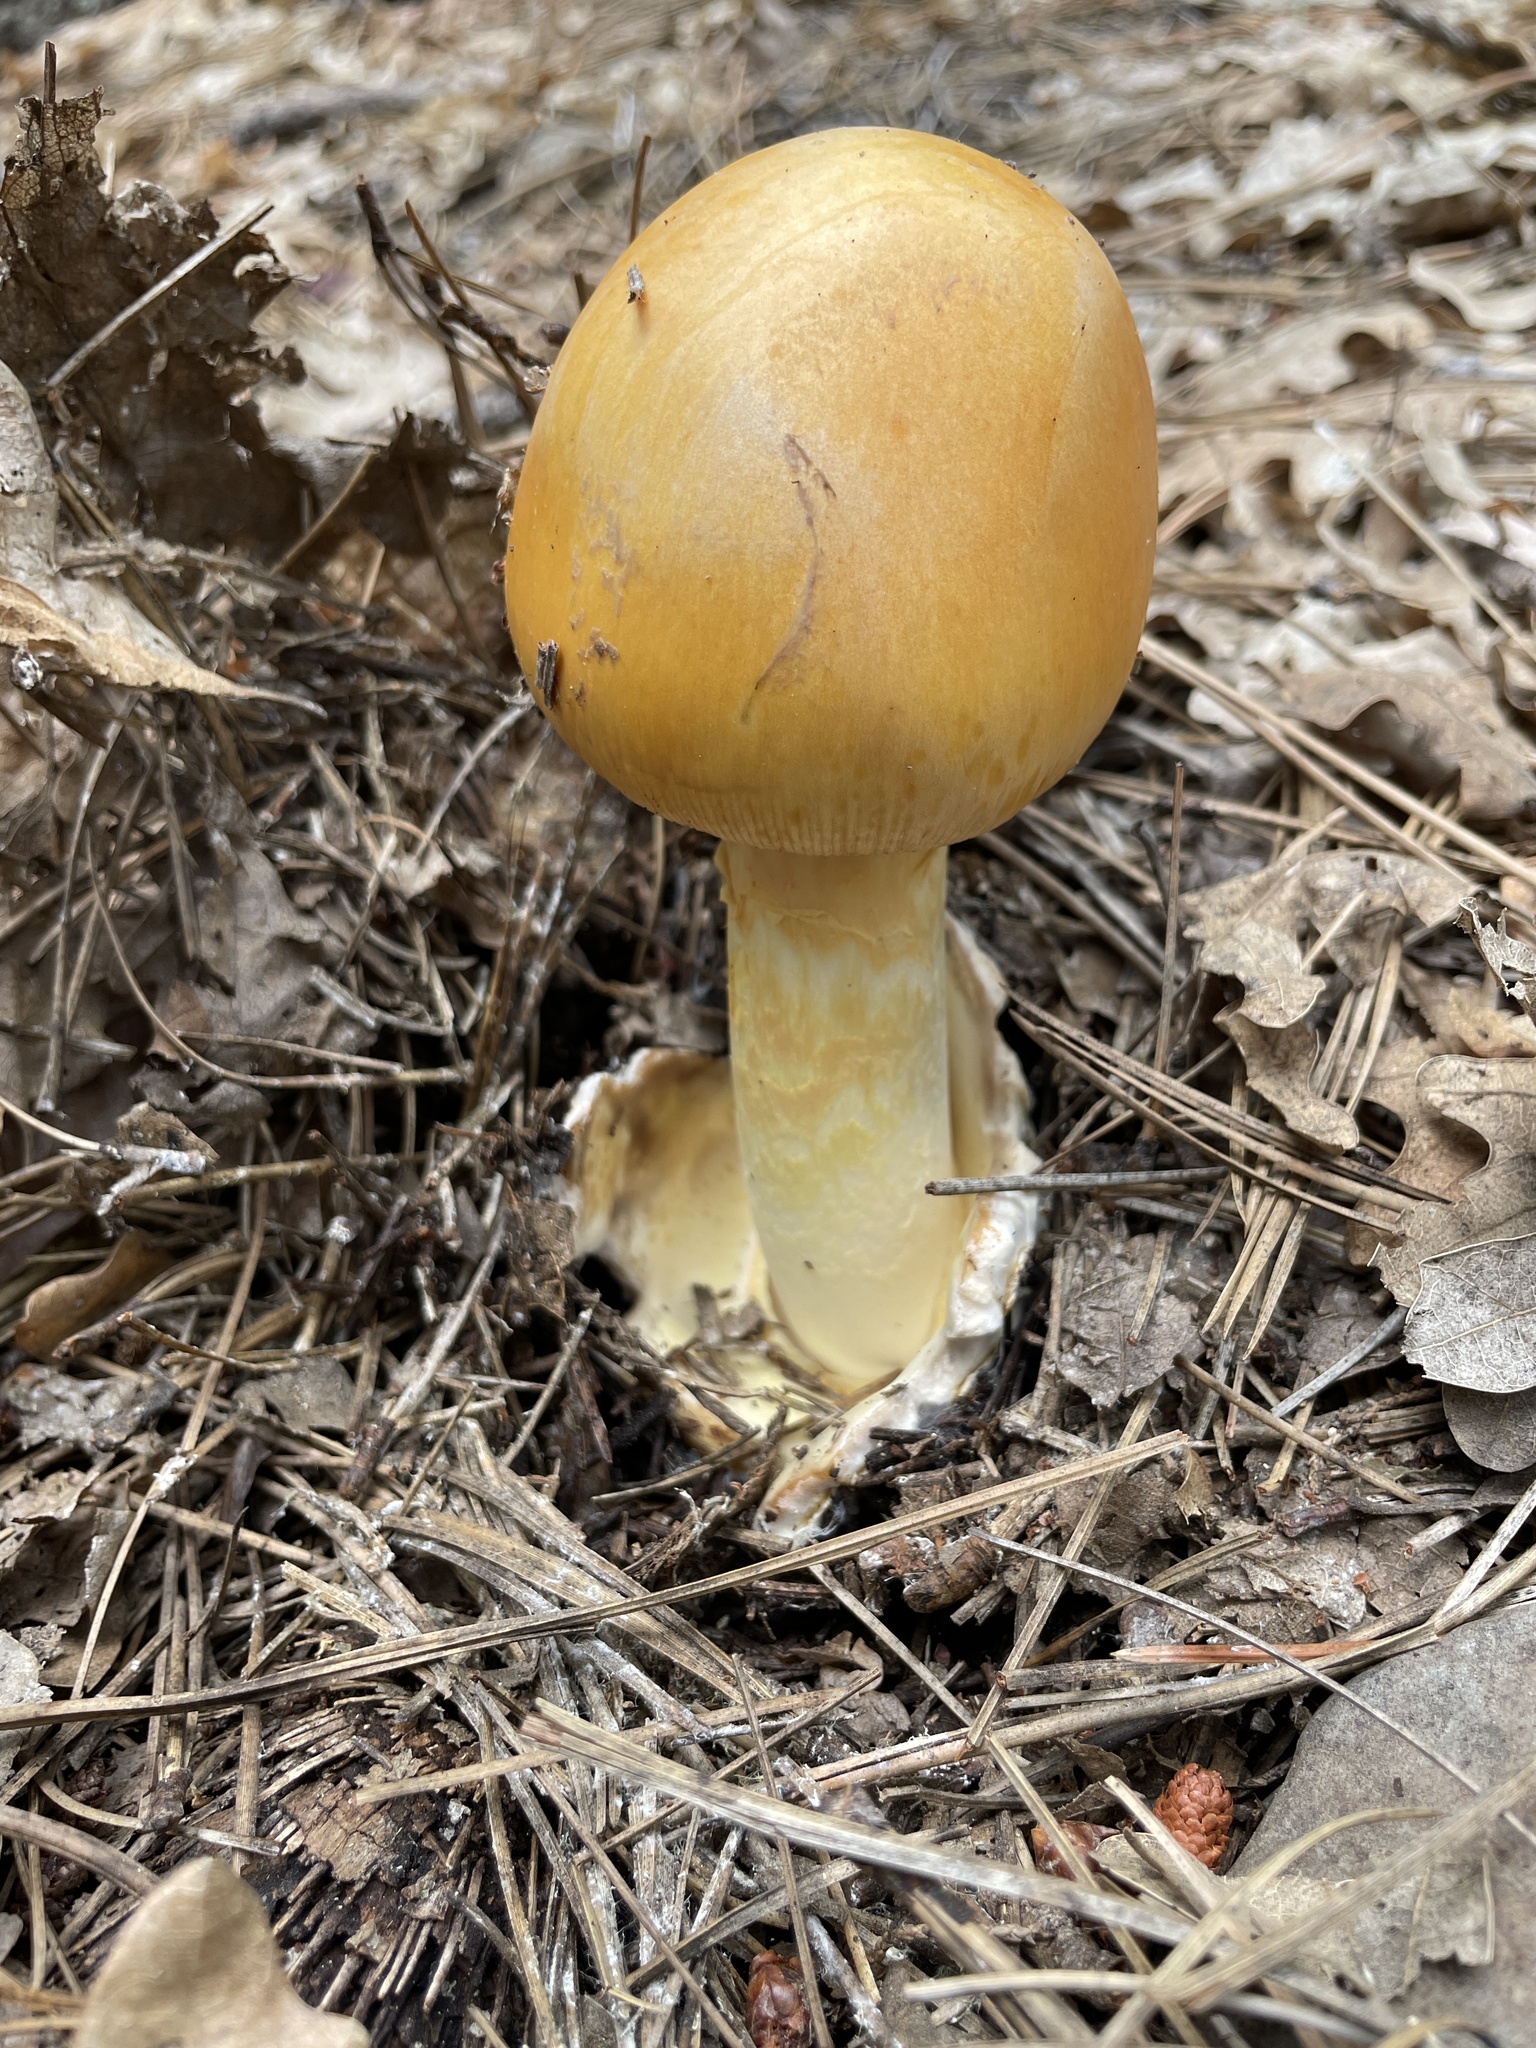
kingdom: Fungi
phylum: Basidiomycota
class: Agaricomycetes
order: Agaricales
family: Amanitaceae
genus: Amanita
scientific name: Amanita
